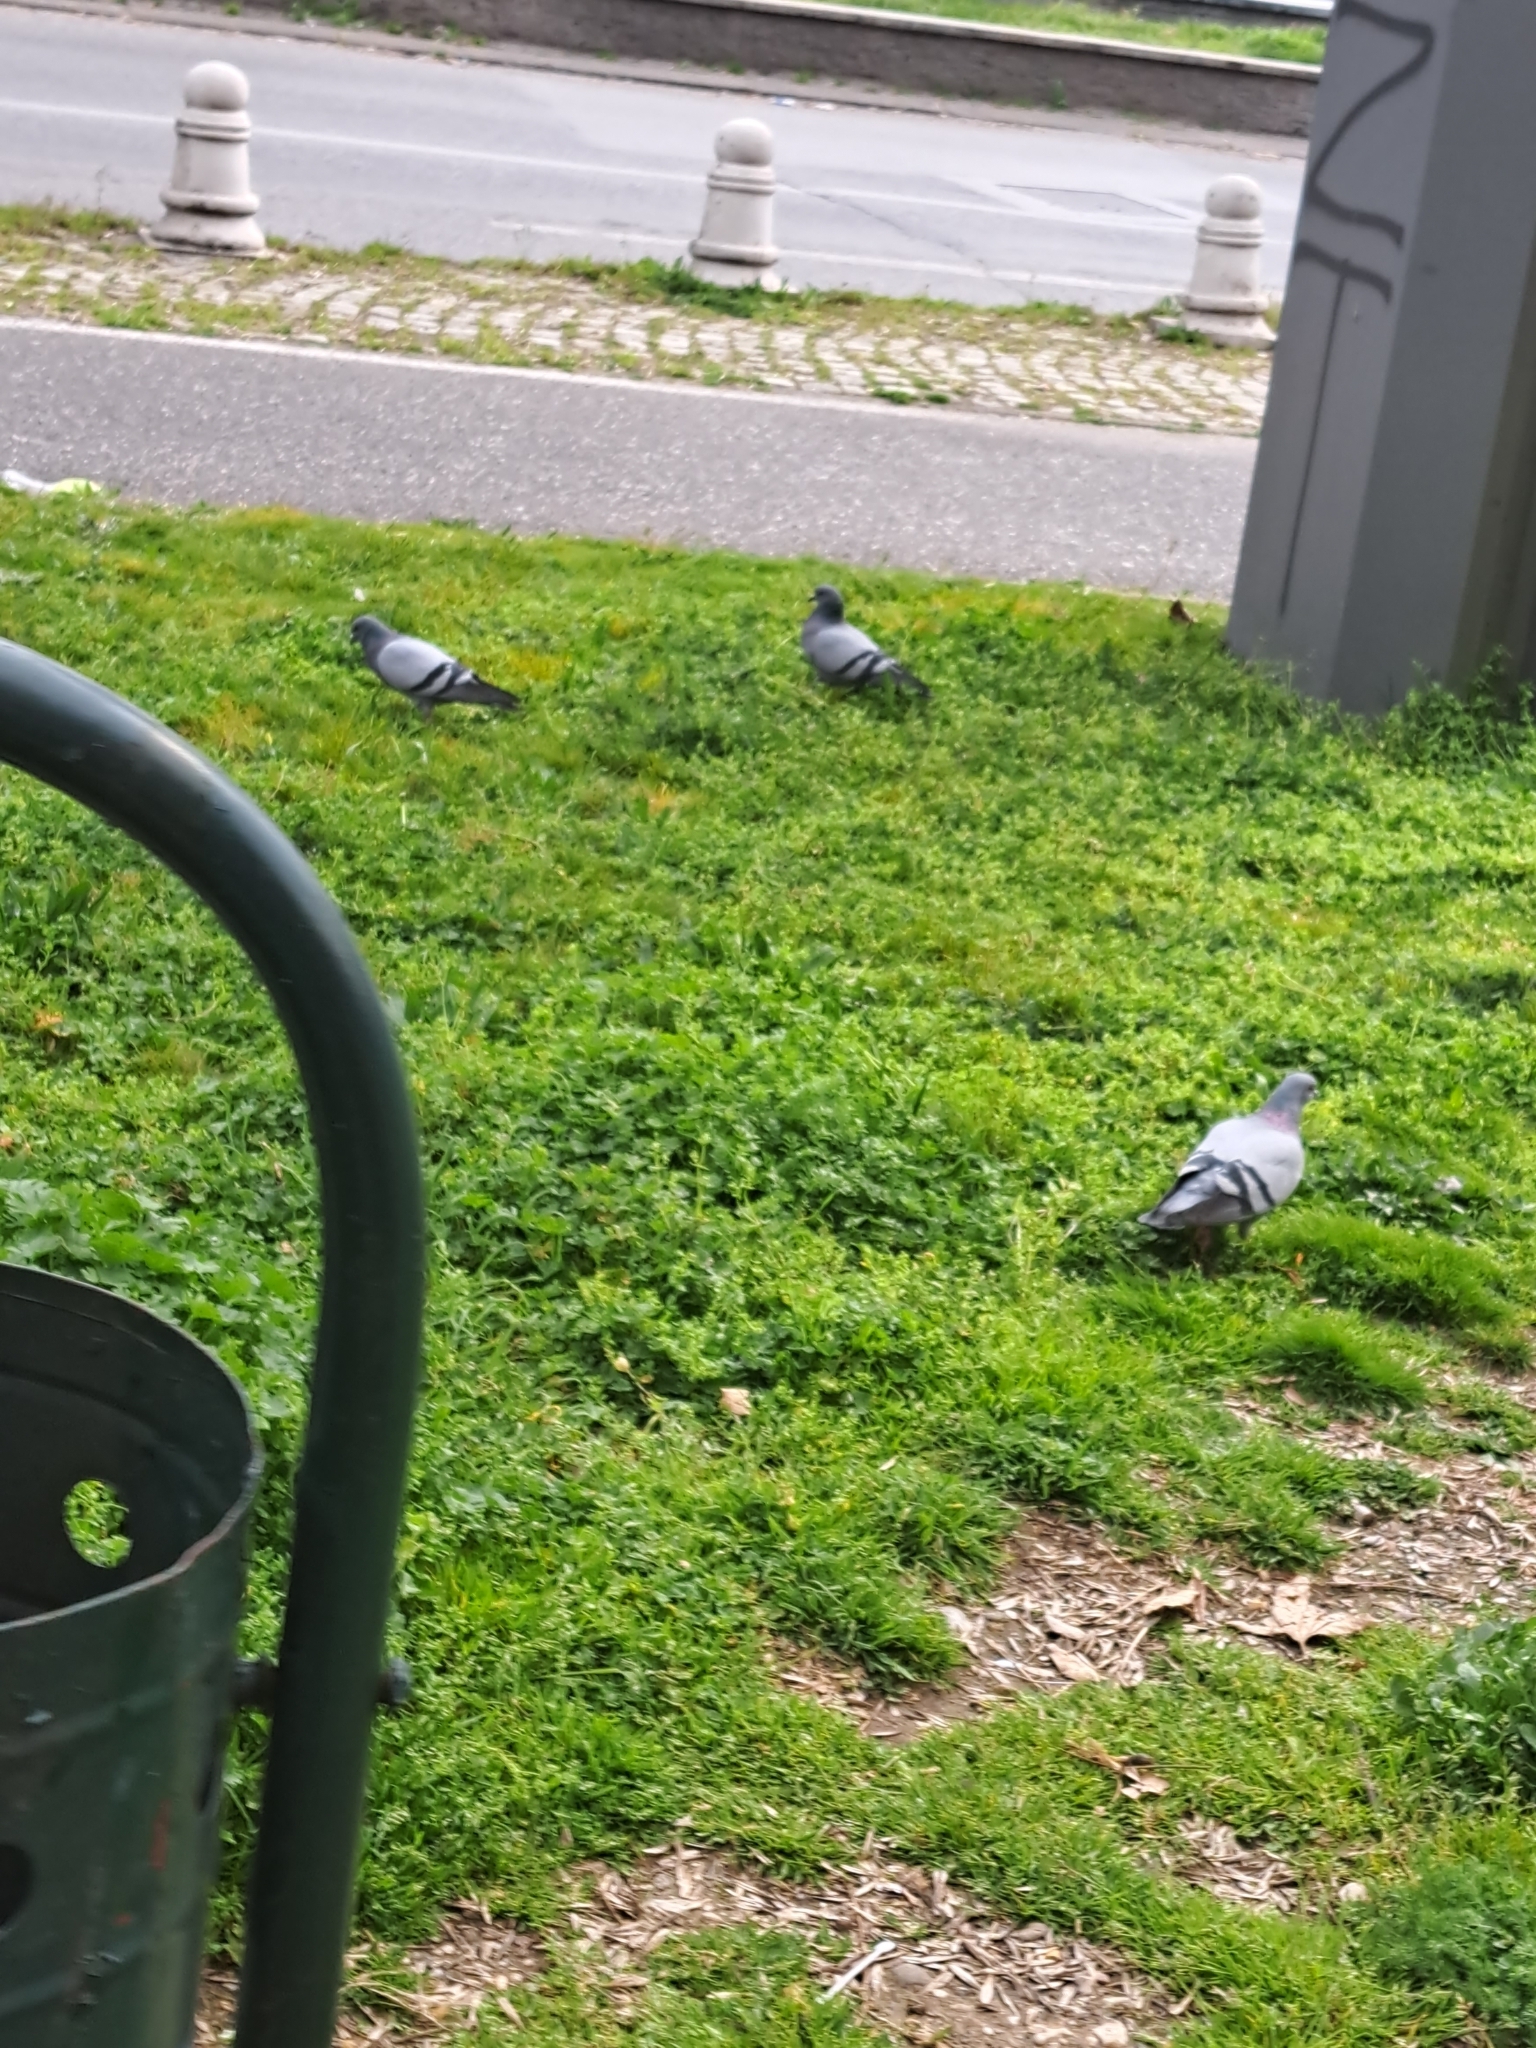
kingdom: Animalia
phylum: Chordata
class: Aves
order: Columbiformes
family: Columbidae
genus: Columba
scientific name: Columba livia
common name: Rock pigeon
